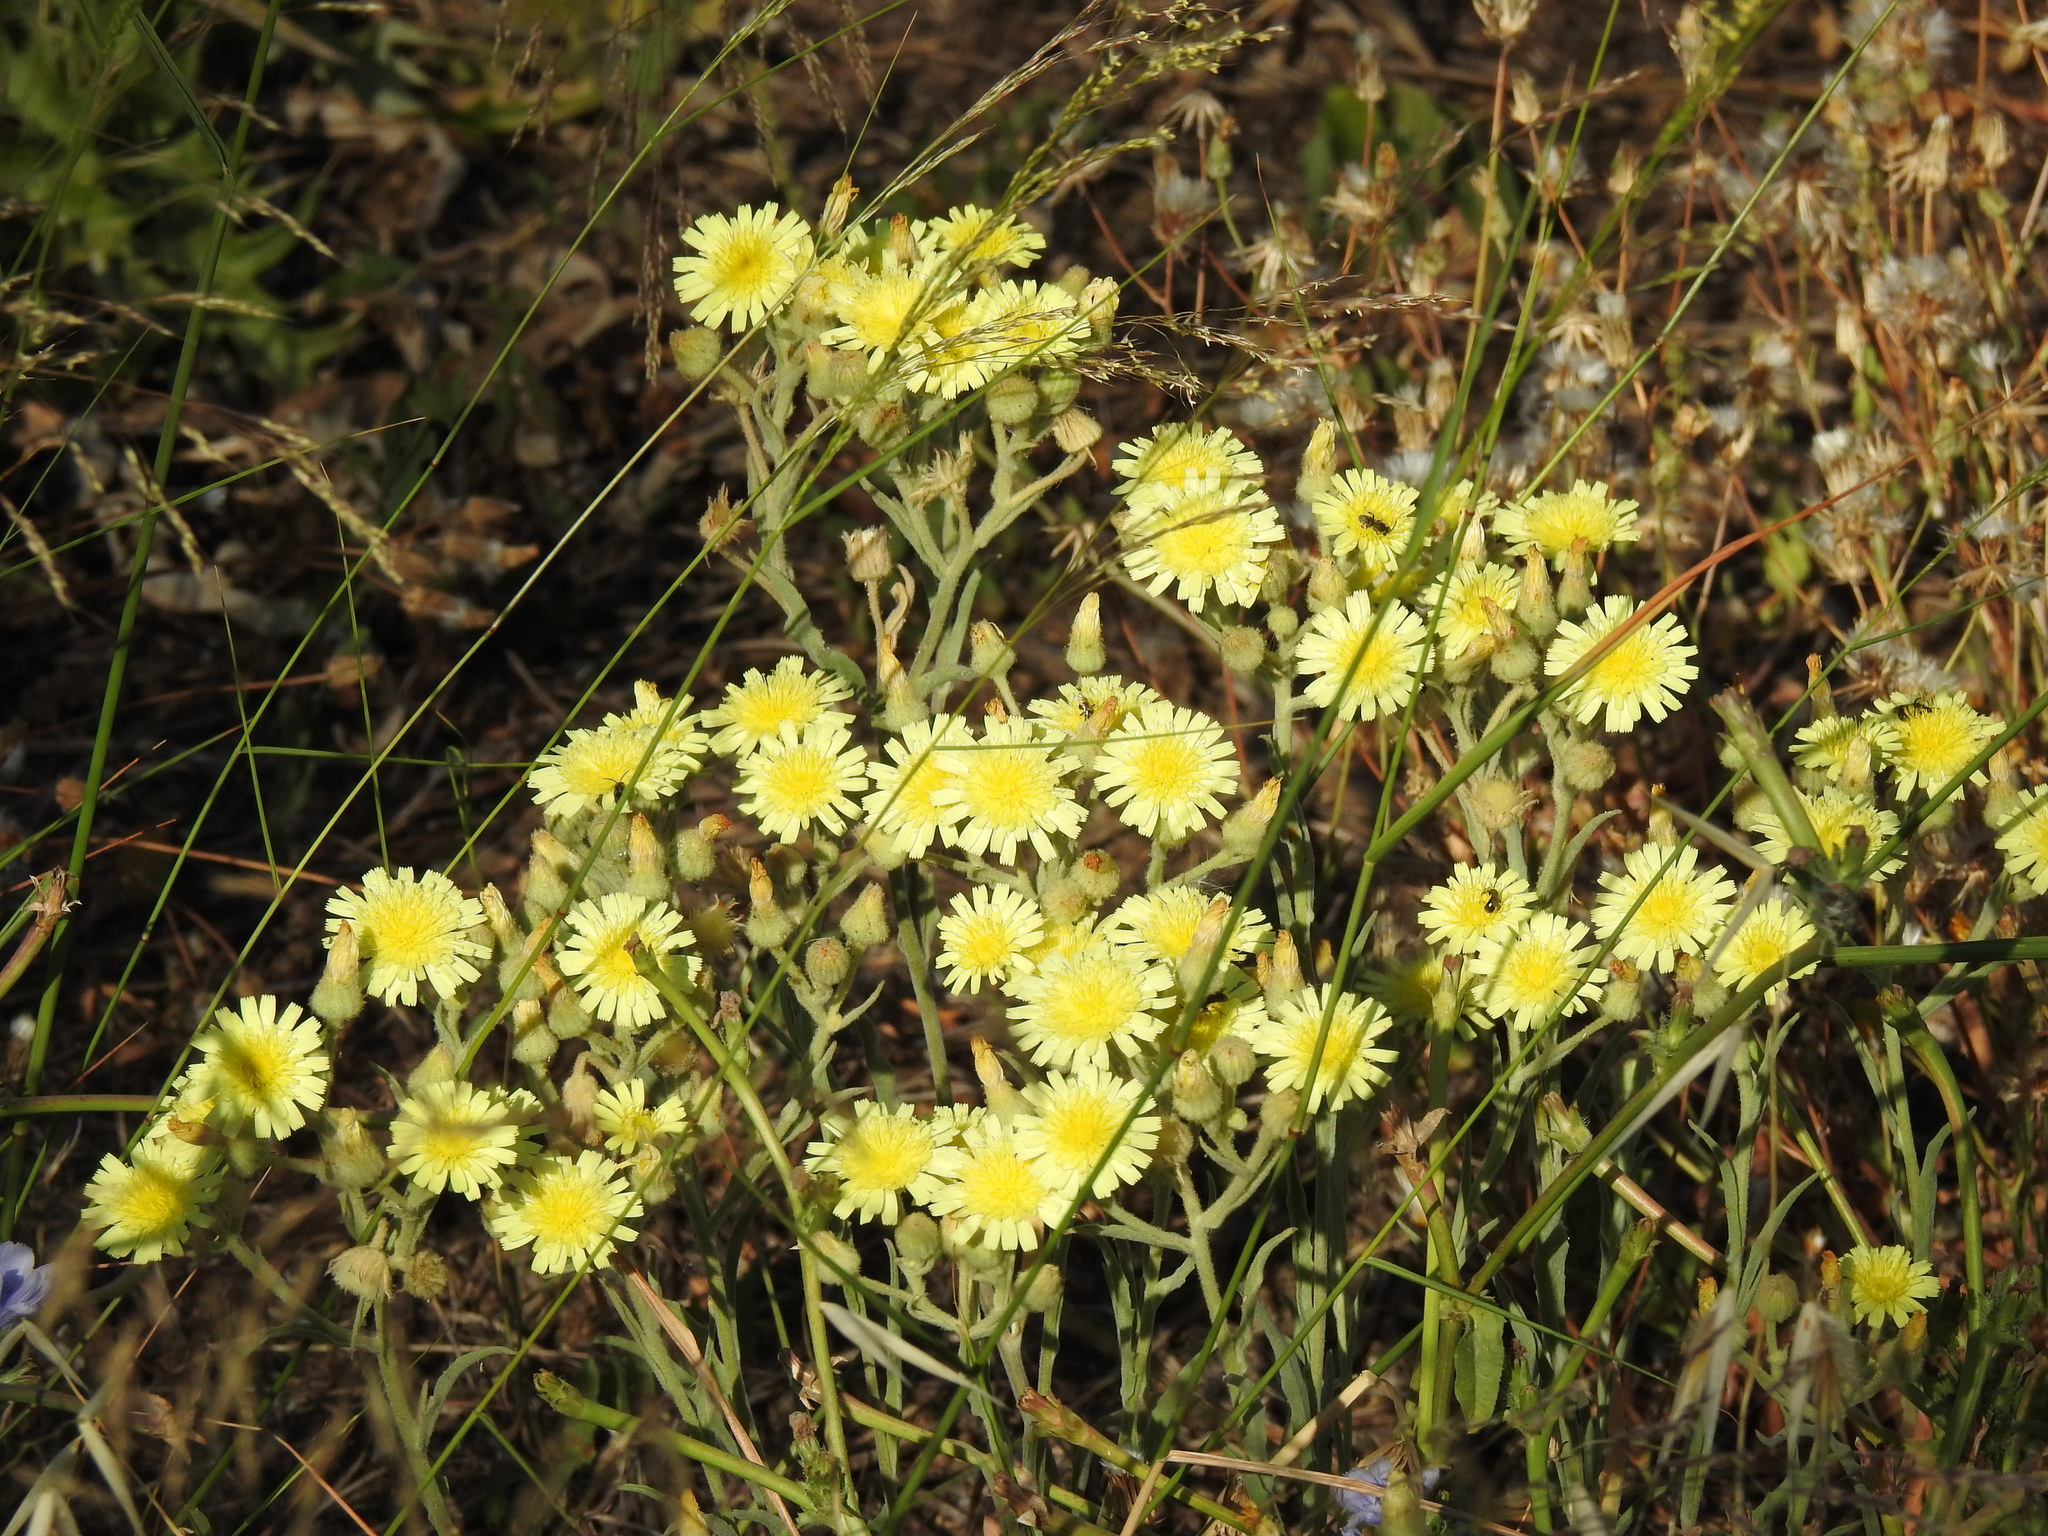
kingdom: Plantae
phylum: Tracheophyta
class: Magnoliopsida
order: Asterales
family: Asteraceae
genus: Andryala
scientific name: Andryala integrifolia
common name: Common andryala
